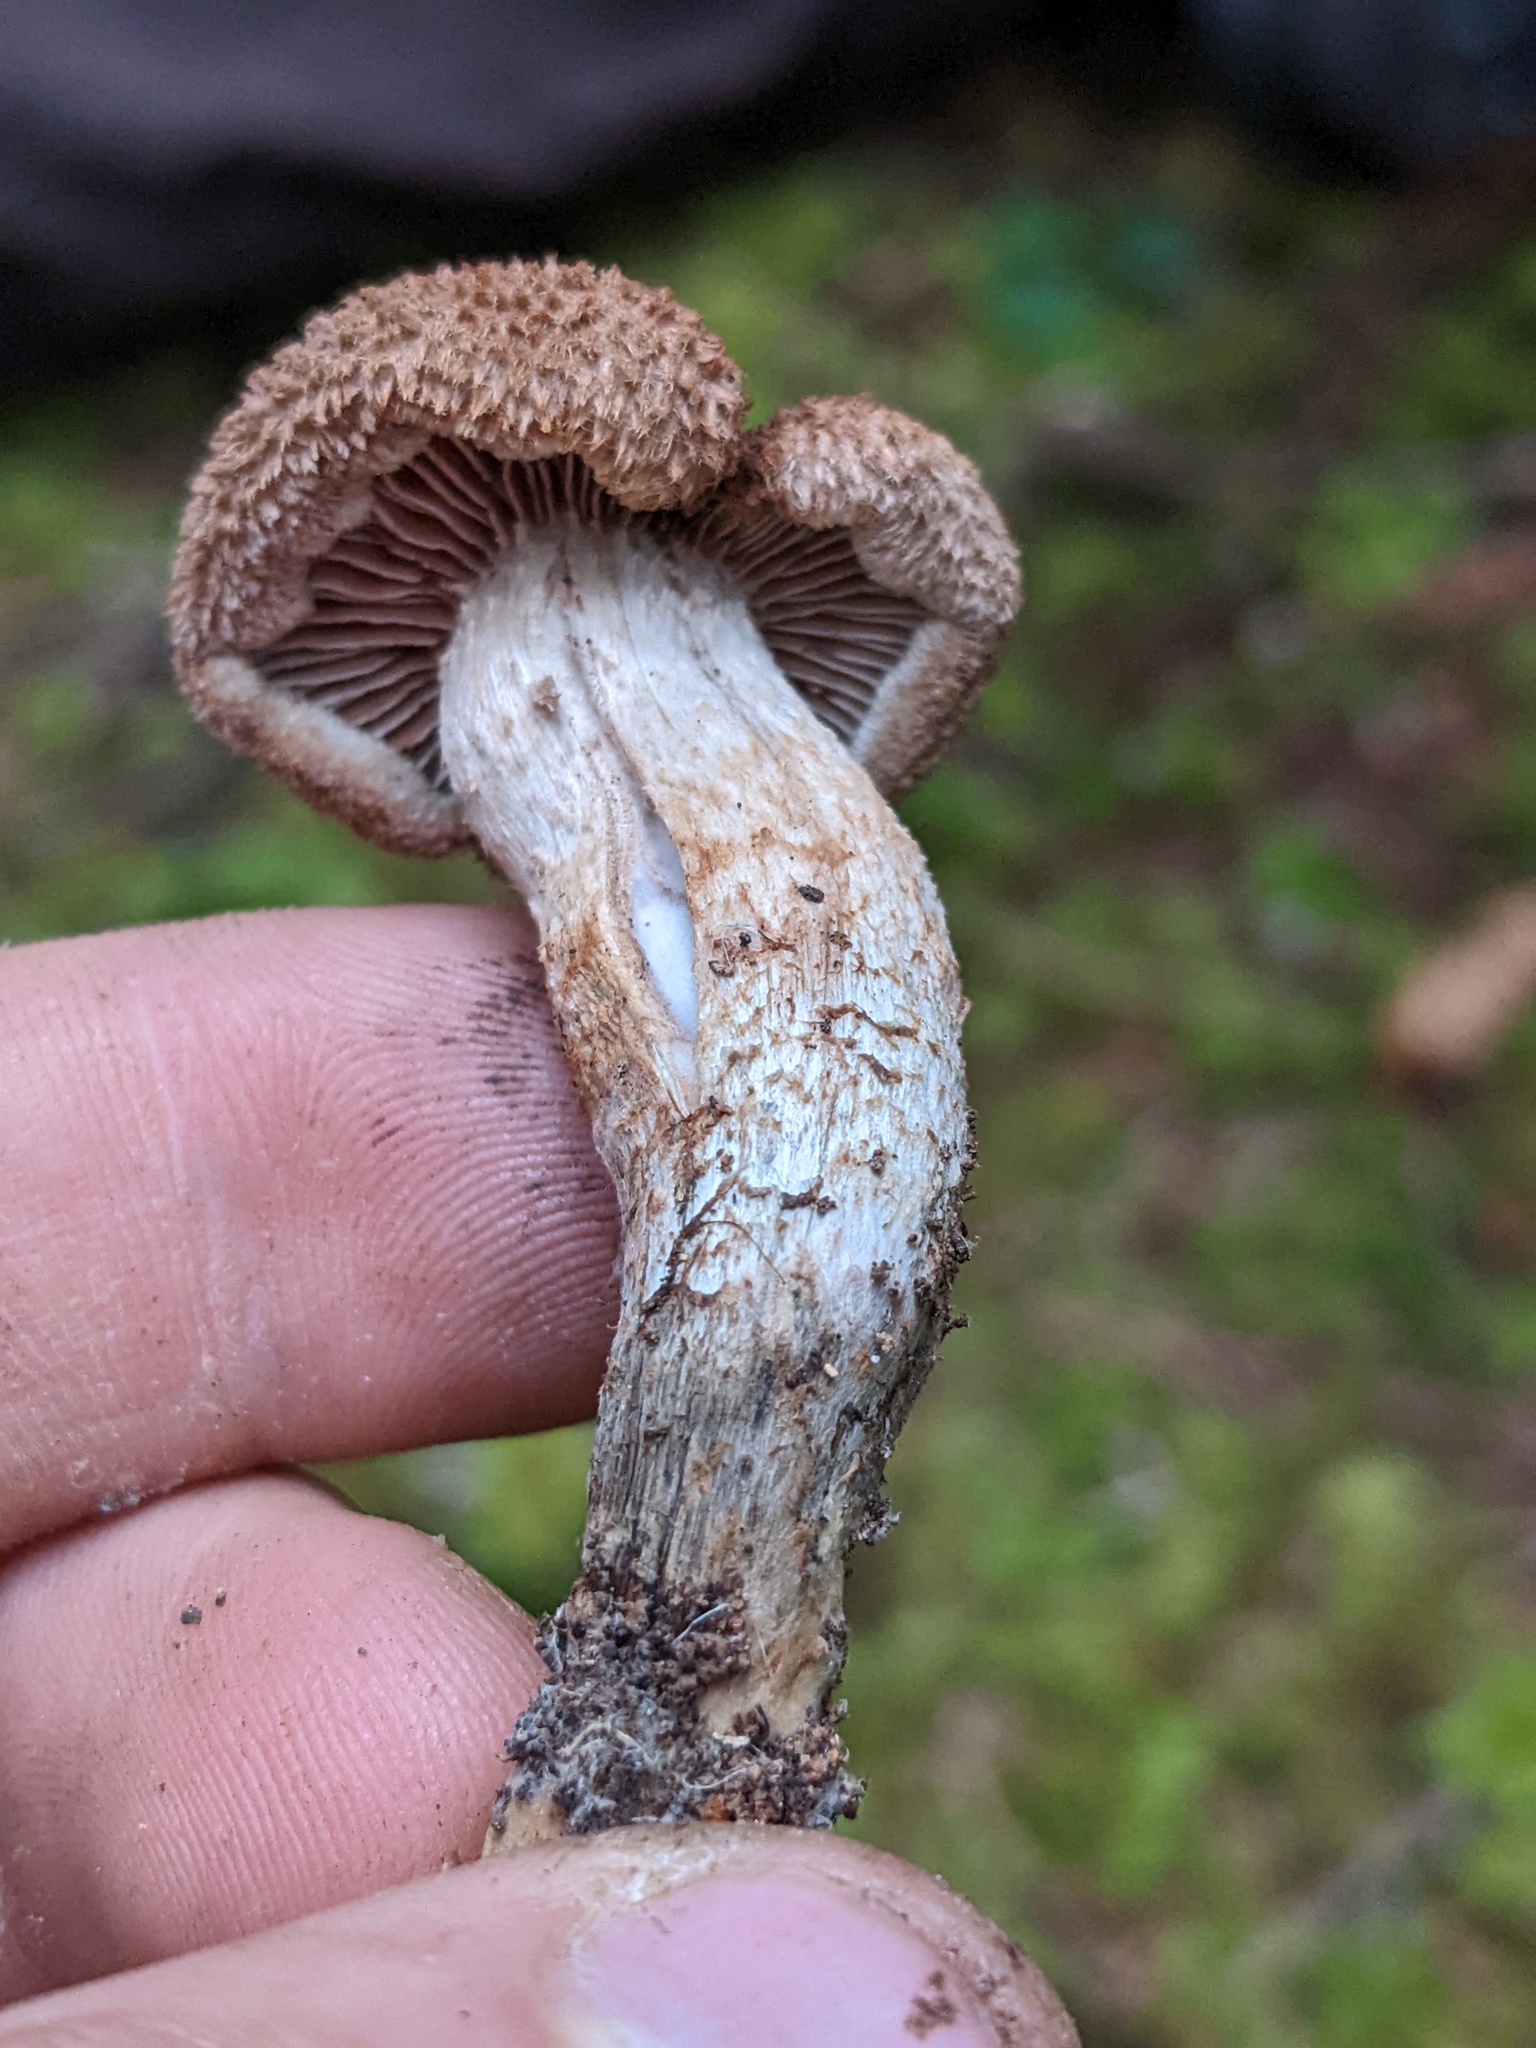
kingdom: Fungi
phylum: Basidiomycota
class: Agaricomycetes
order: Agaricales
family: Inocybaceae
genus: Inosperma
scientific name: Inosperma calamistratum
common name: Greenfoot fibrecap
